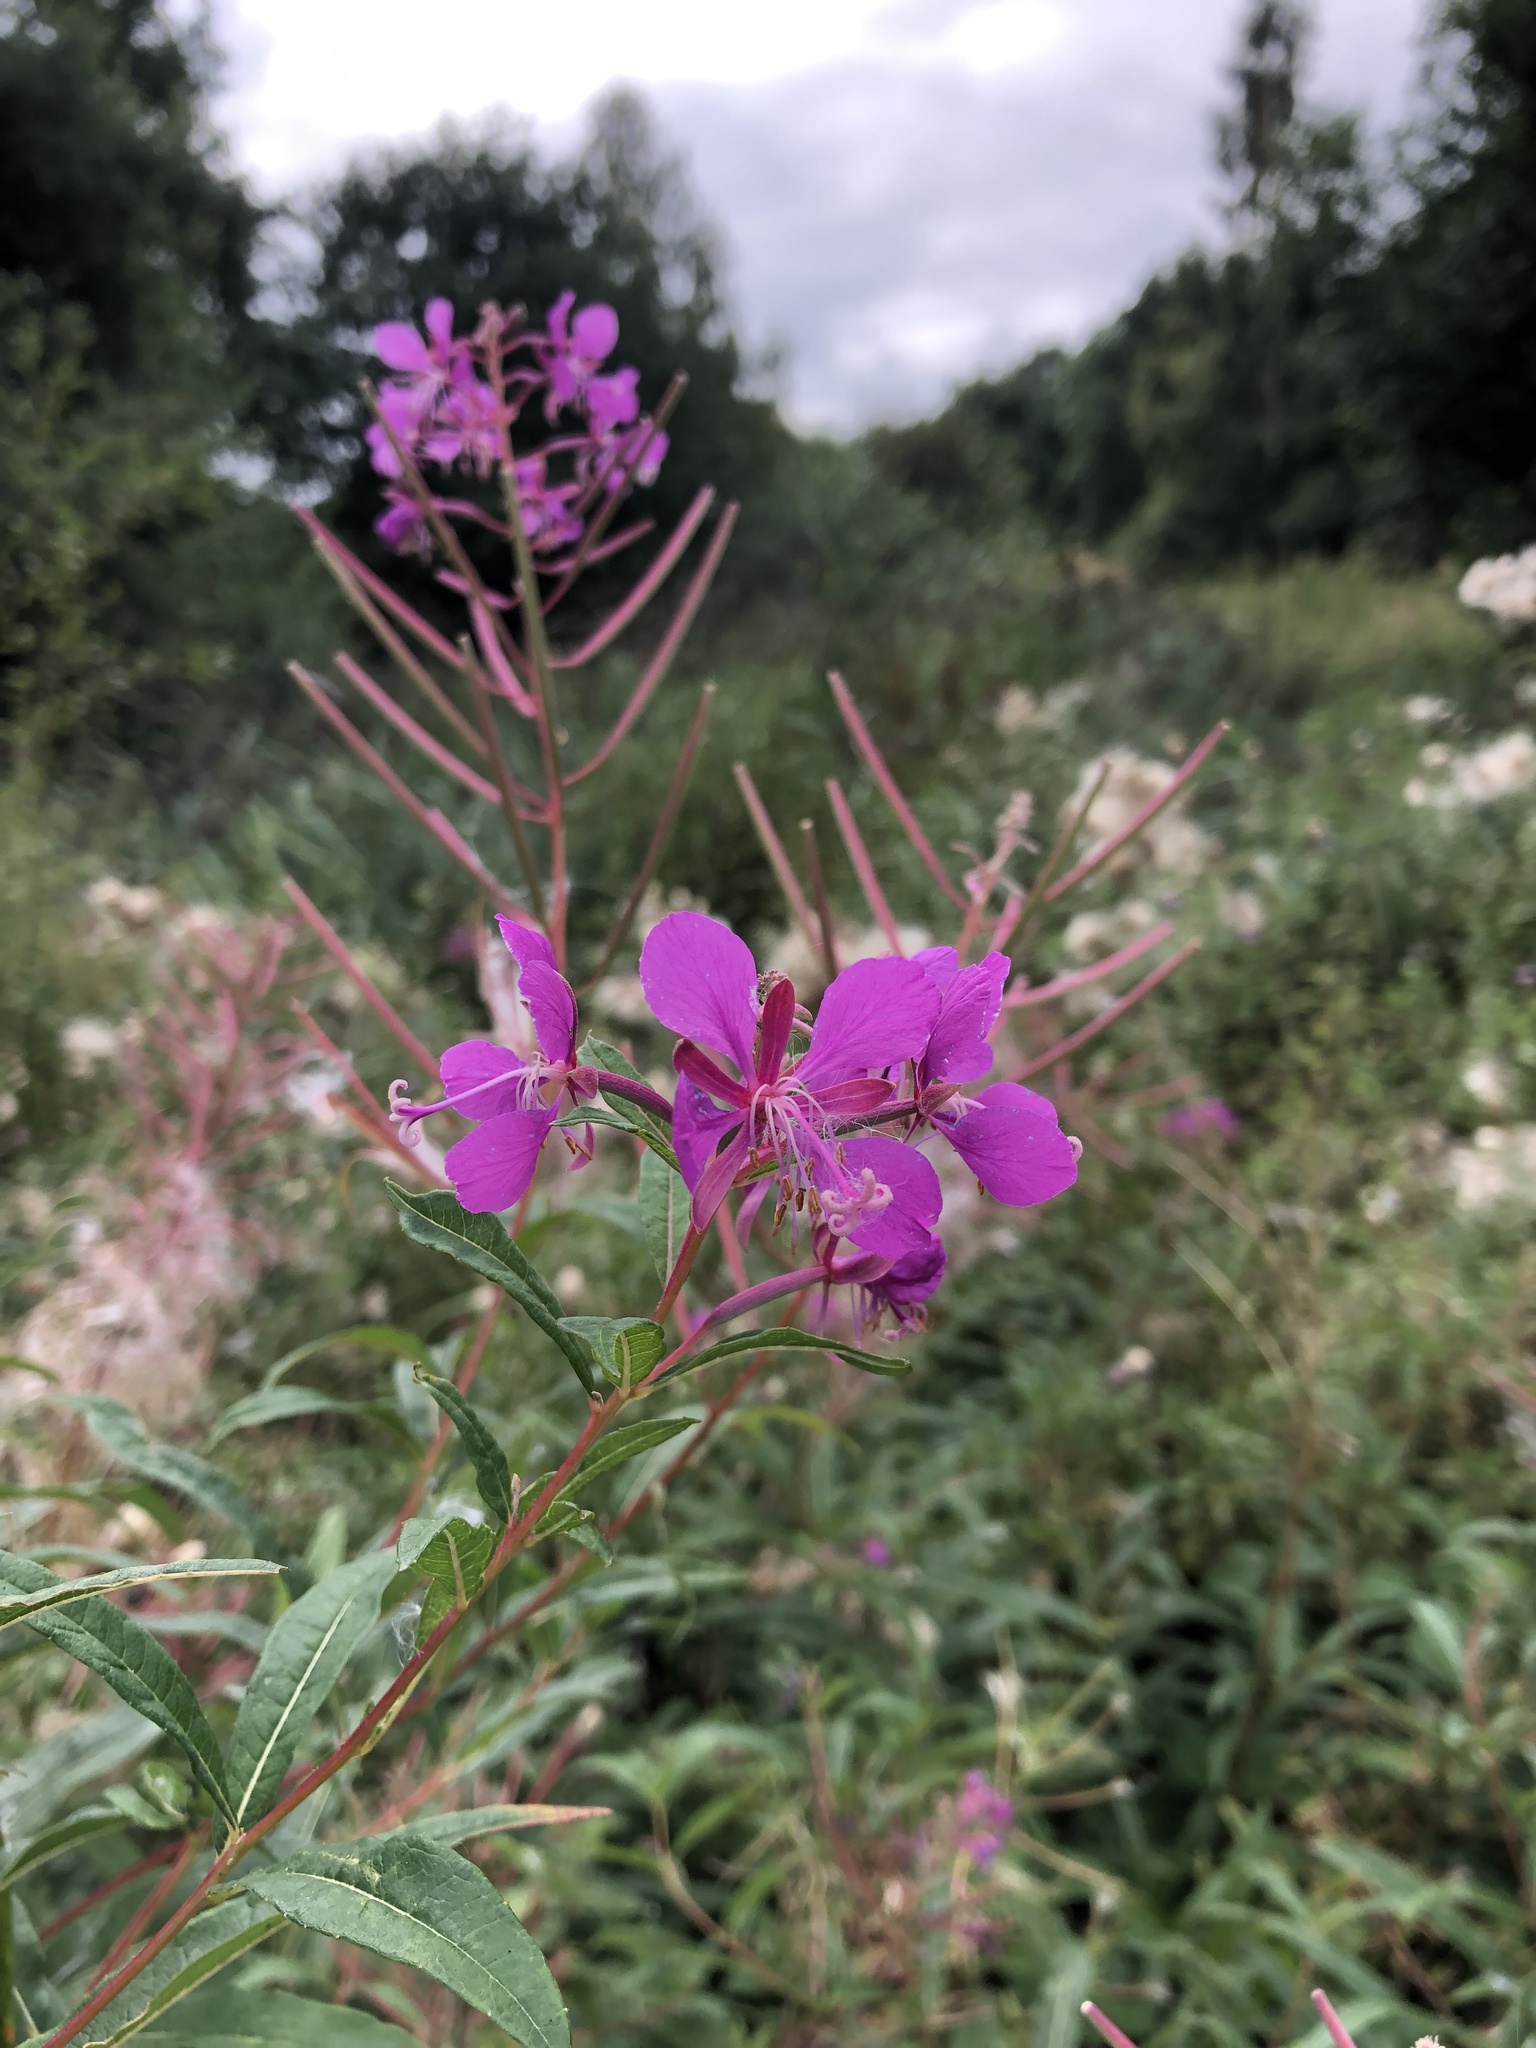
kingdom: Plantae
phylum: Tracheophyta
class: Magnoliopsida
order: Myrtales
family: Onagraceae
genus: Chamaenerion
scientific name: Chamaenerion angustifolium
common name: Fireweed
